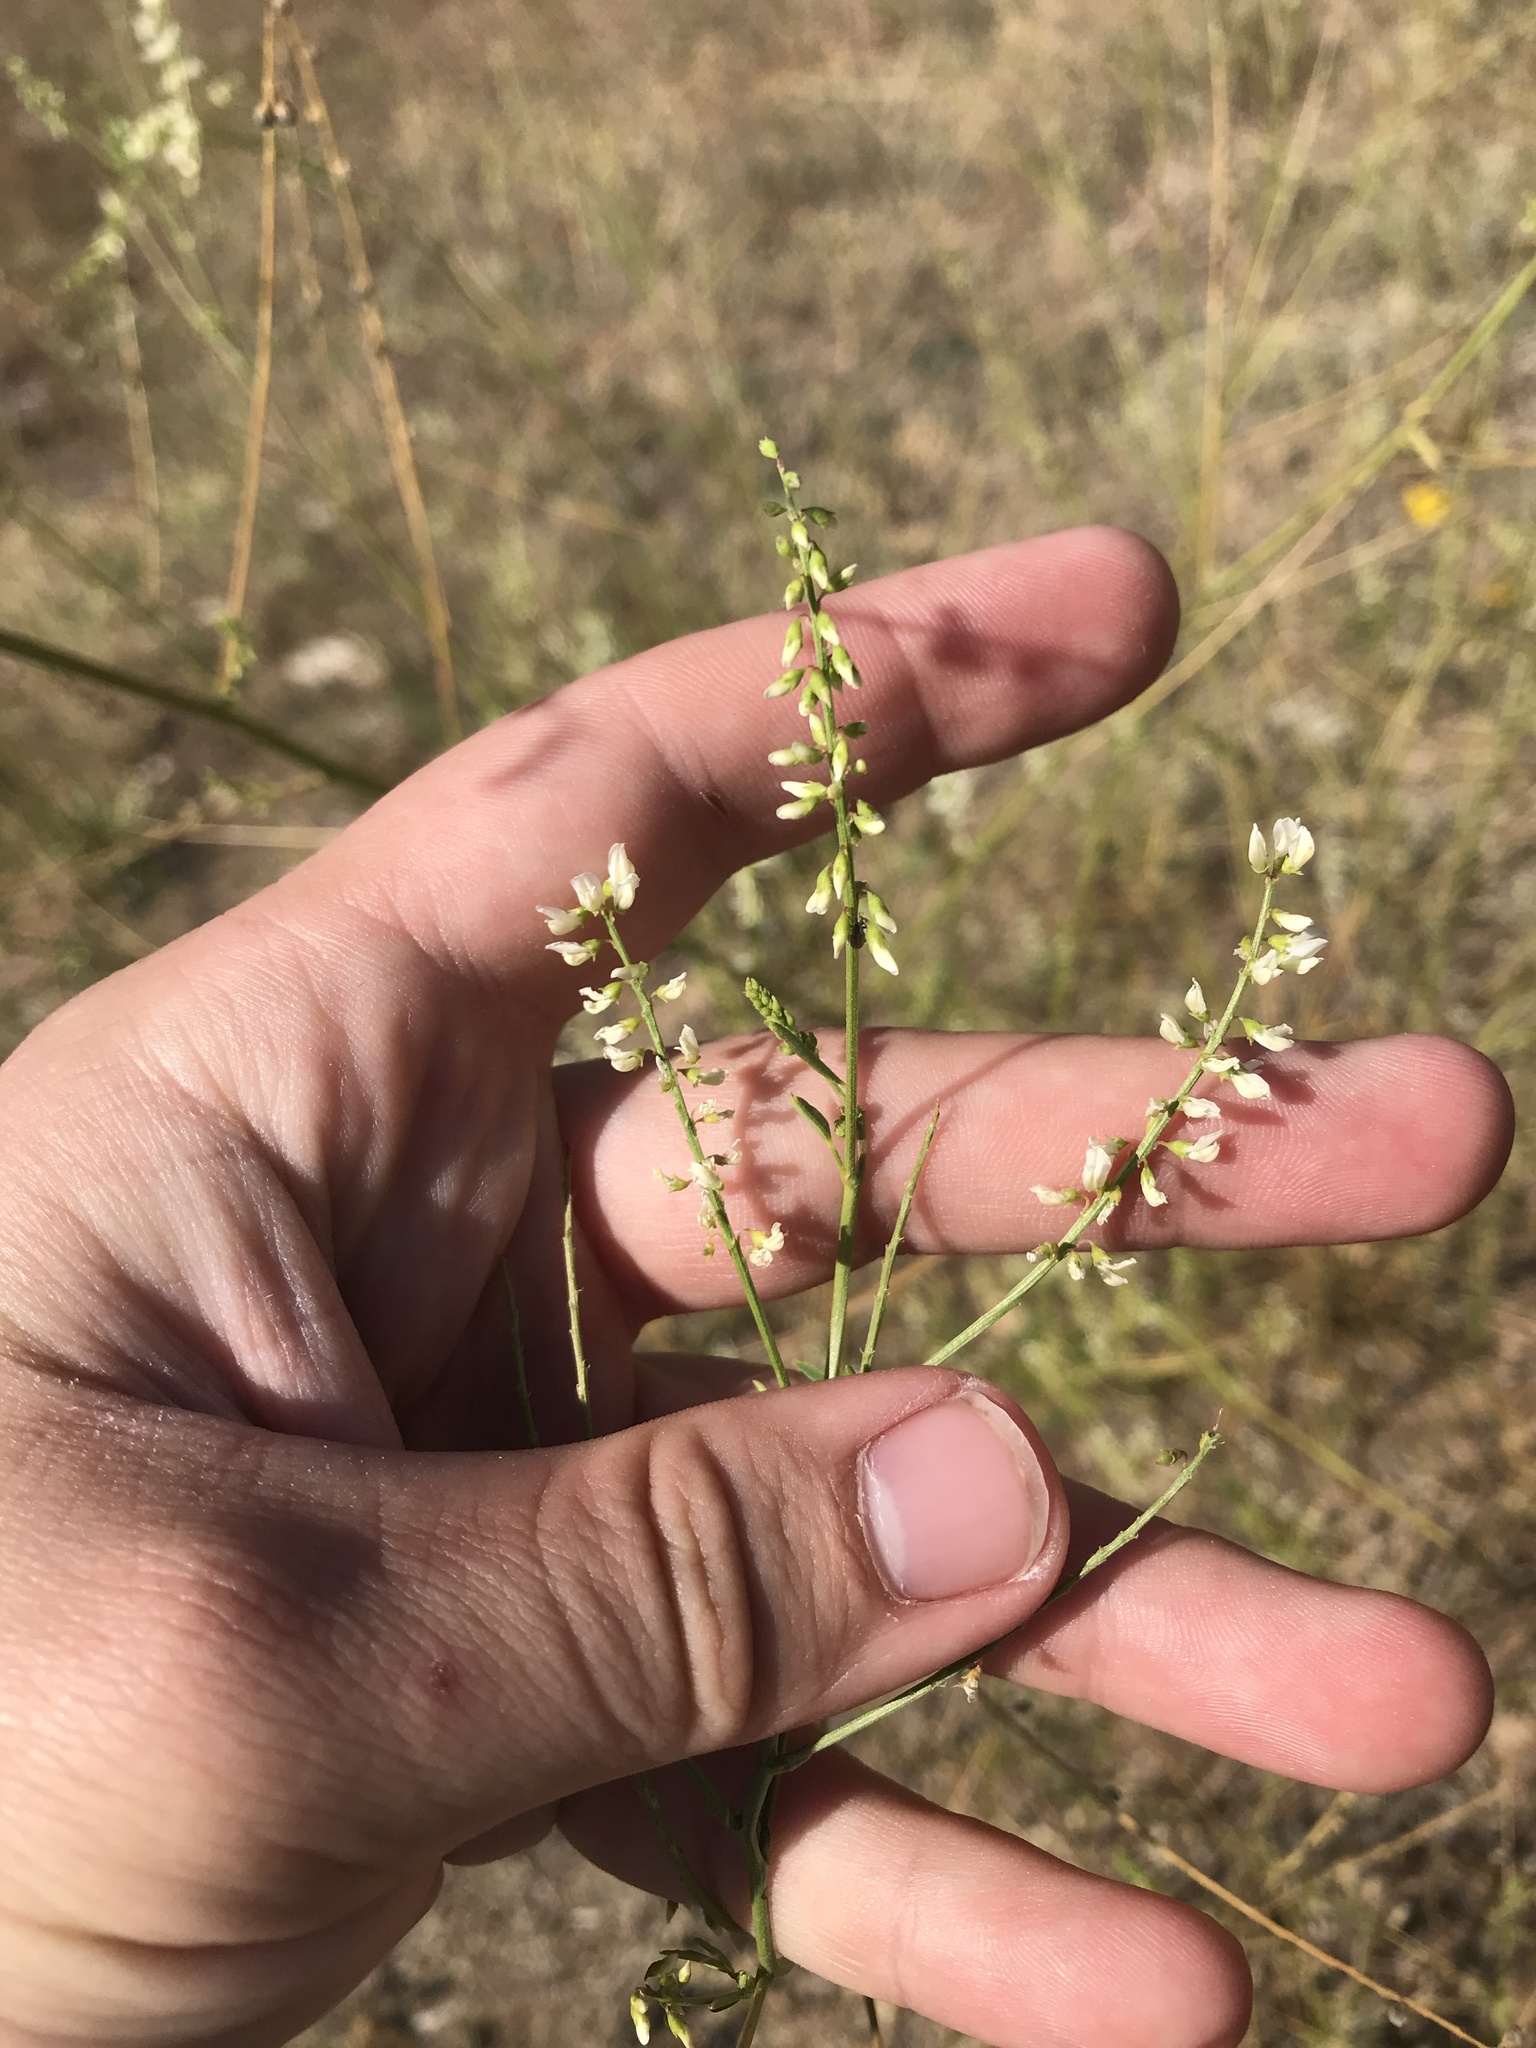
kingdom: Plantae
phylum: Tracheophyta
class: Magnoliopsida
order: Fabales
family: Fabaceae
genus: Melilotus
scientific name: Melilotus albus
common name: White melilot
